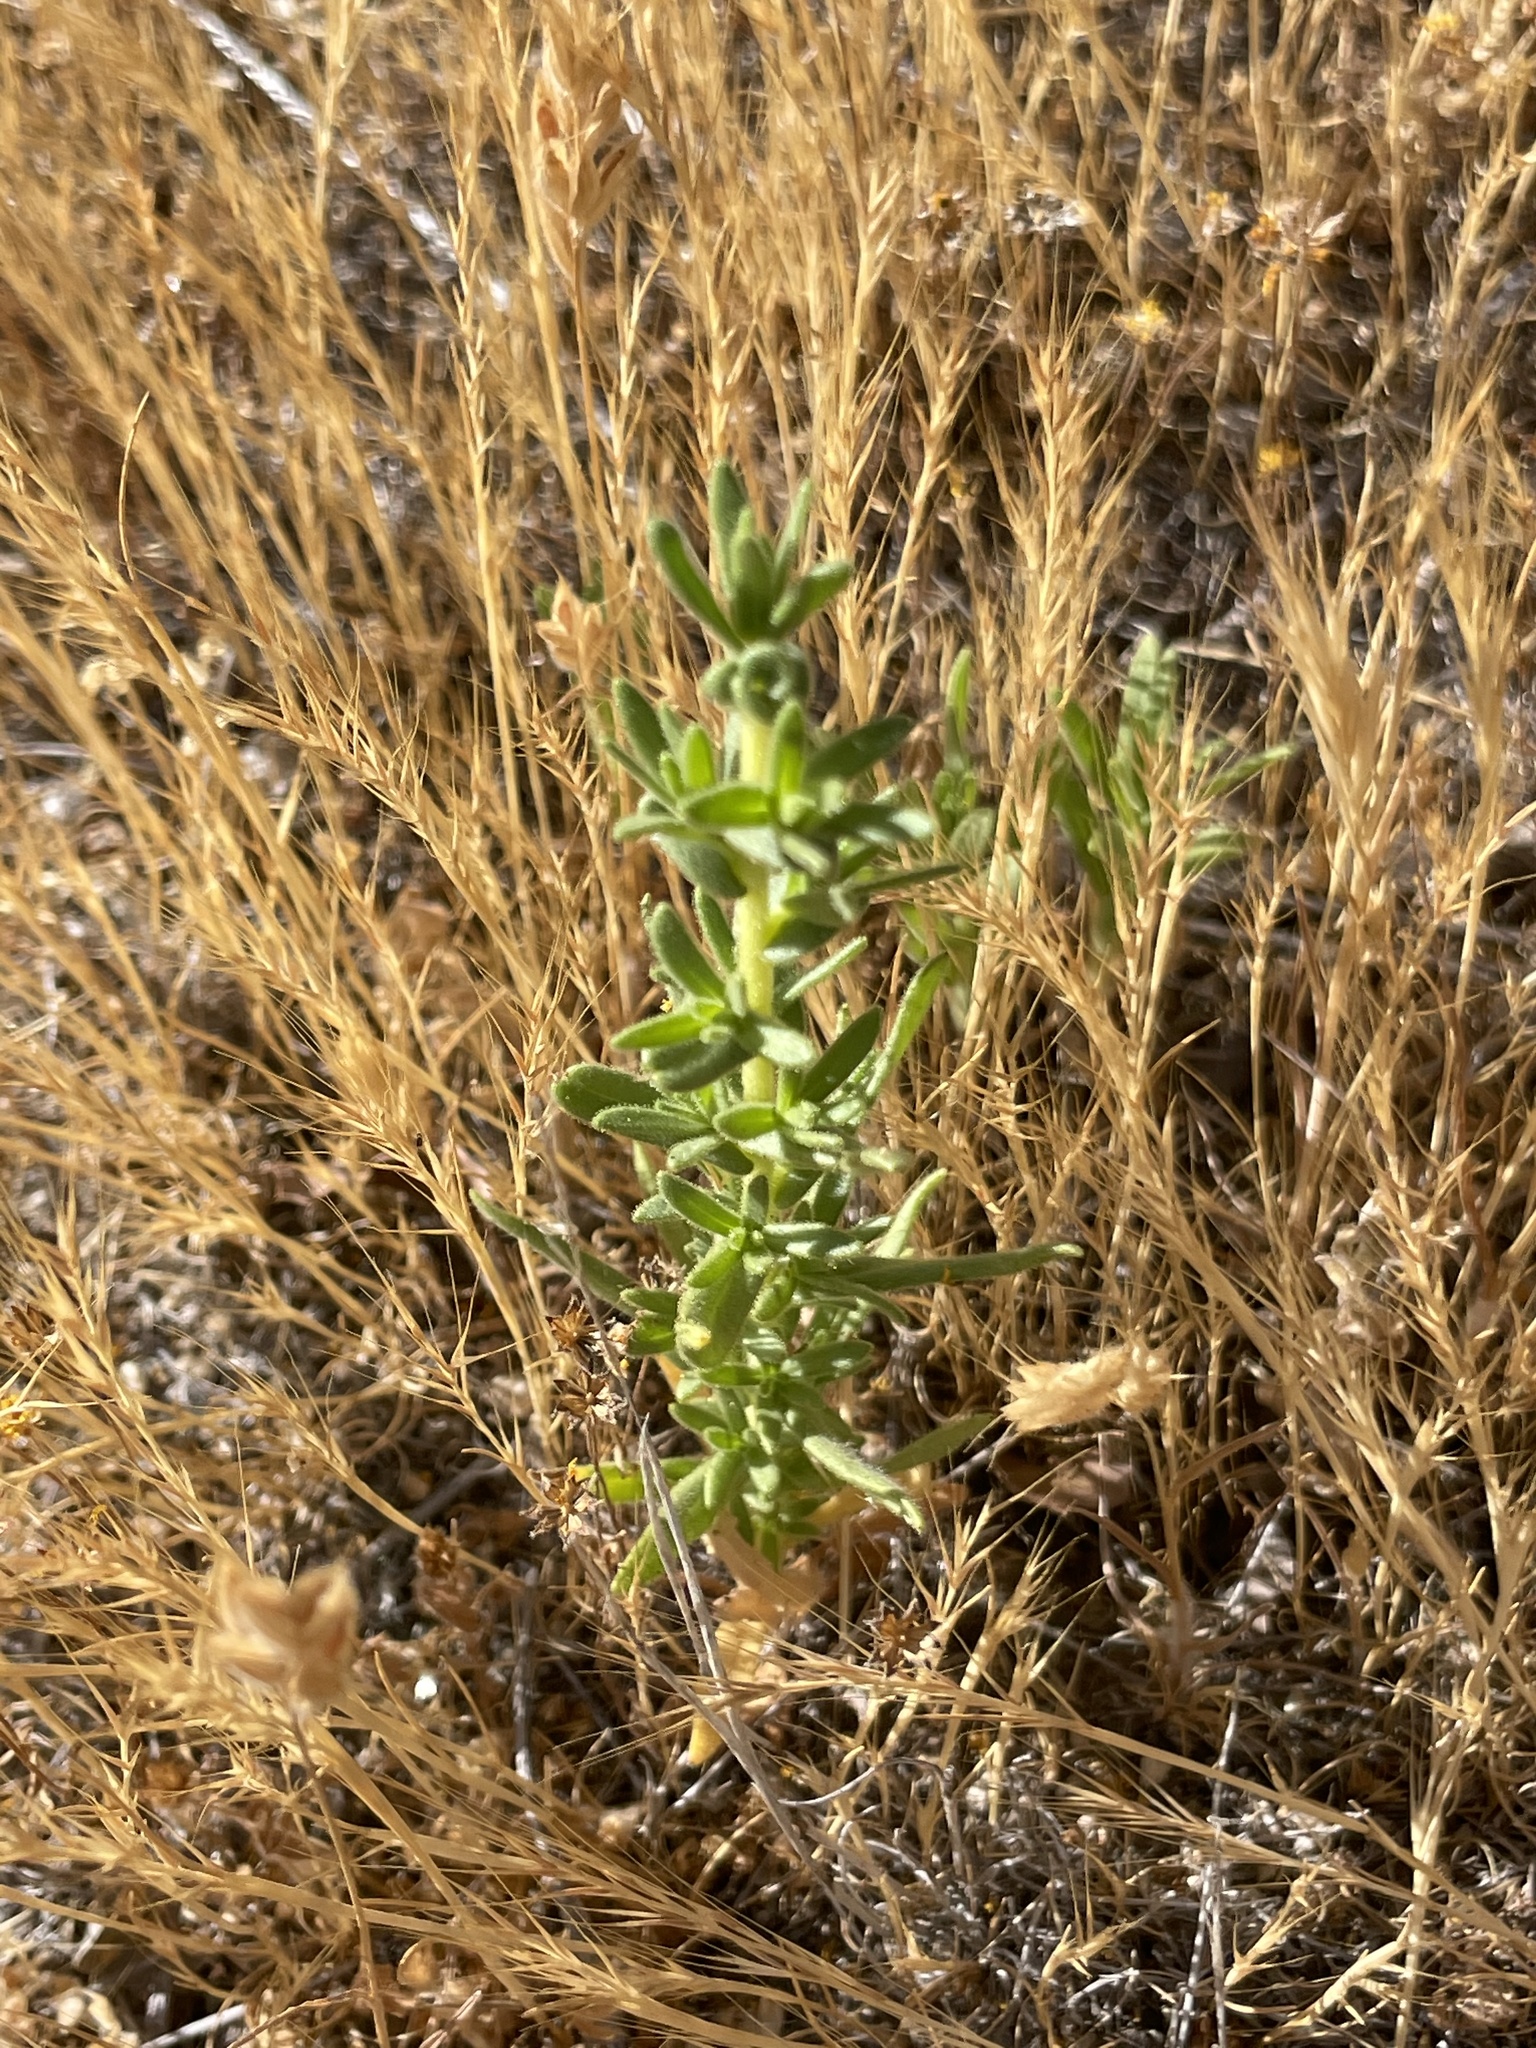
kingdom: Plantae
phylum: Tracheophyta
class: Magnoliopsida
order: Asterales
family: Asteraceae
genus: Deinandra
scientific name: Deinandra floribunda
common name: Tecate tarweed
